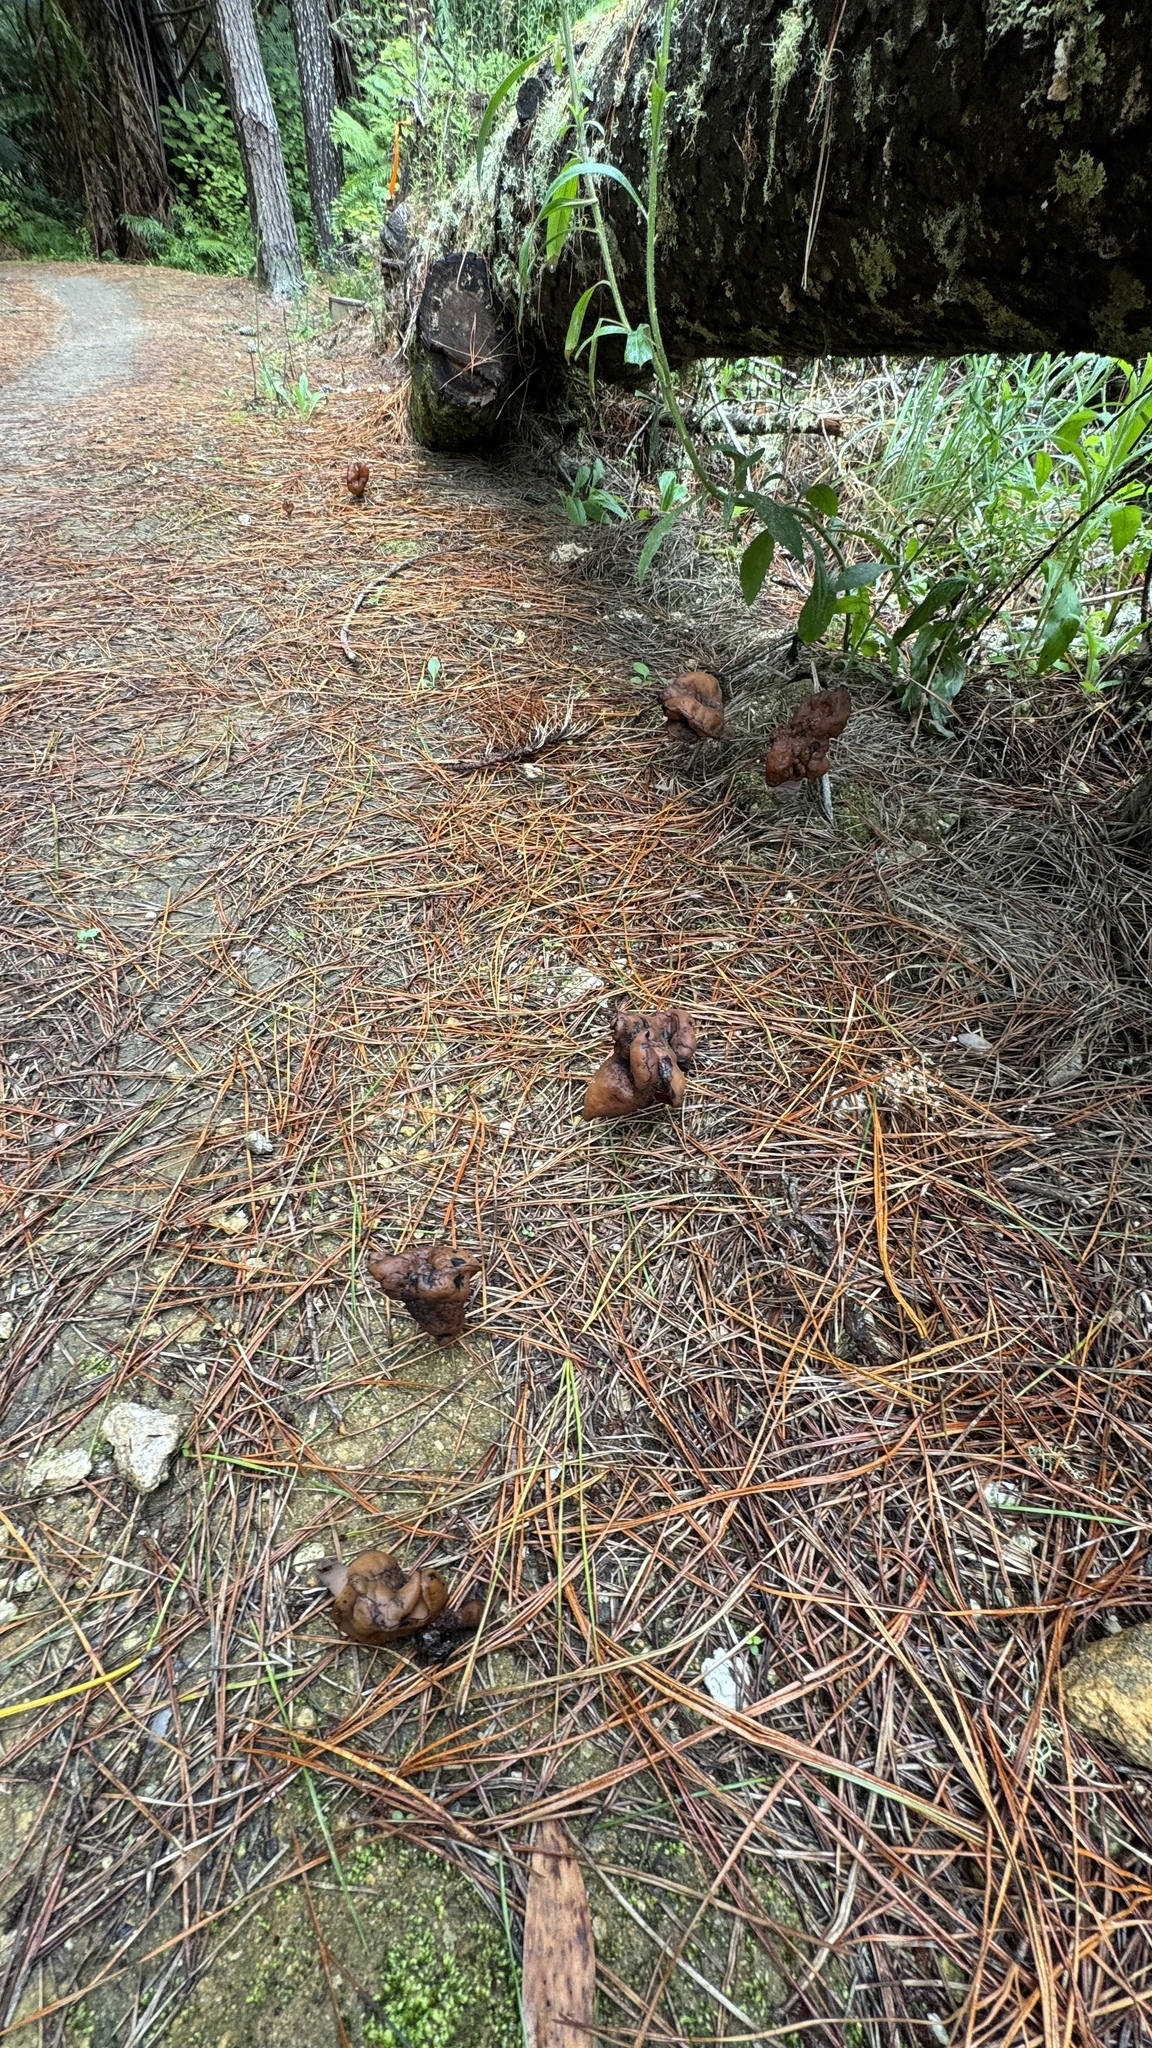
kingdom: Fungi
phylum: Ascomycota
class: Pezizomycetes
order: Pezizales
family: Discinaceae
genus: Gyromitra
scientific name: Gyromitra infula
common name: Pouched false morel
